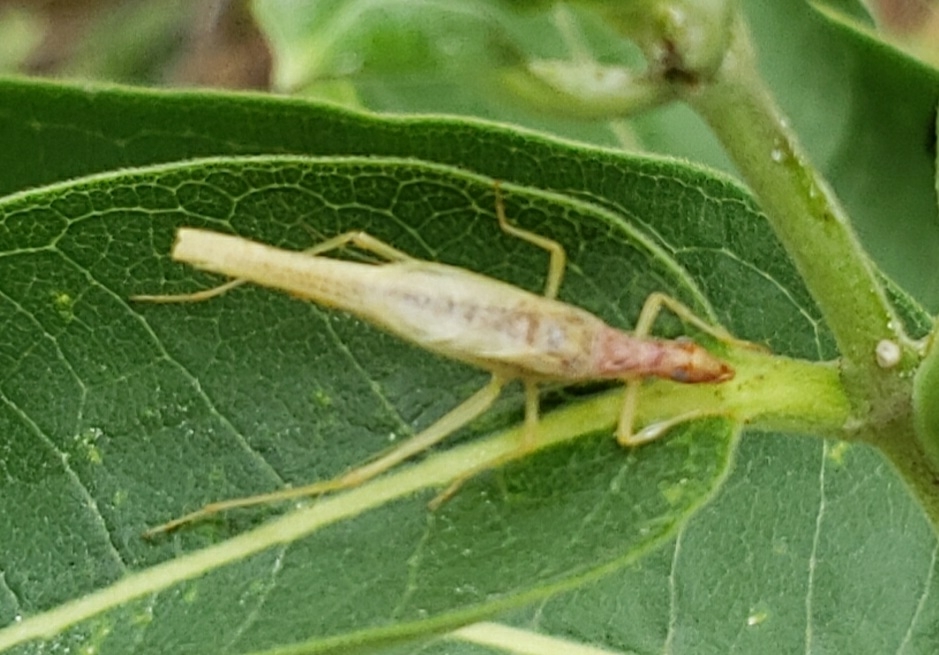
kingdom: Animalia
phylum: Arthropoda
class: Insecta
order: Orthoptera
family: Gryllidae
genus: Neoxabea
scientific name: Neoxabea bipunctata
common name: Two-spotted tree cricket
